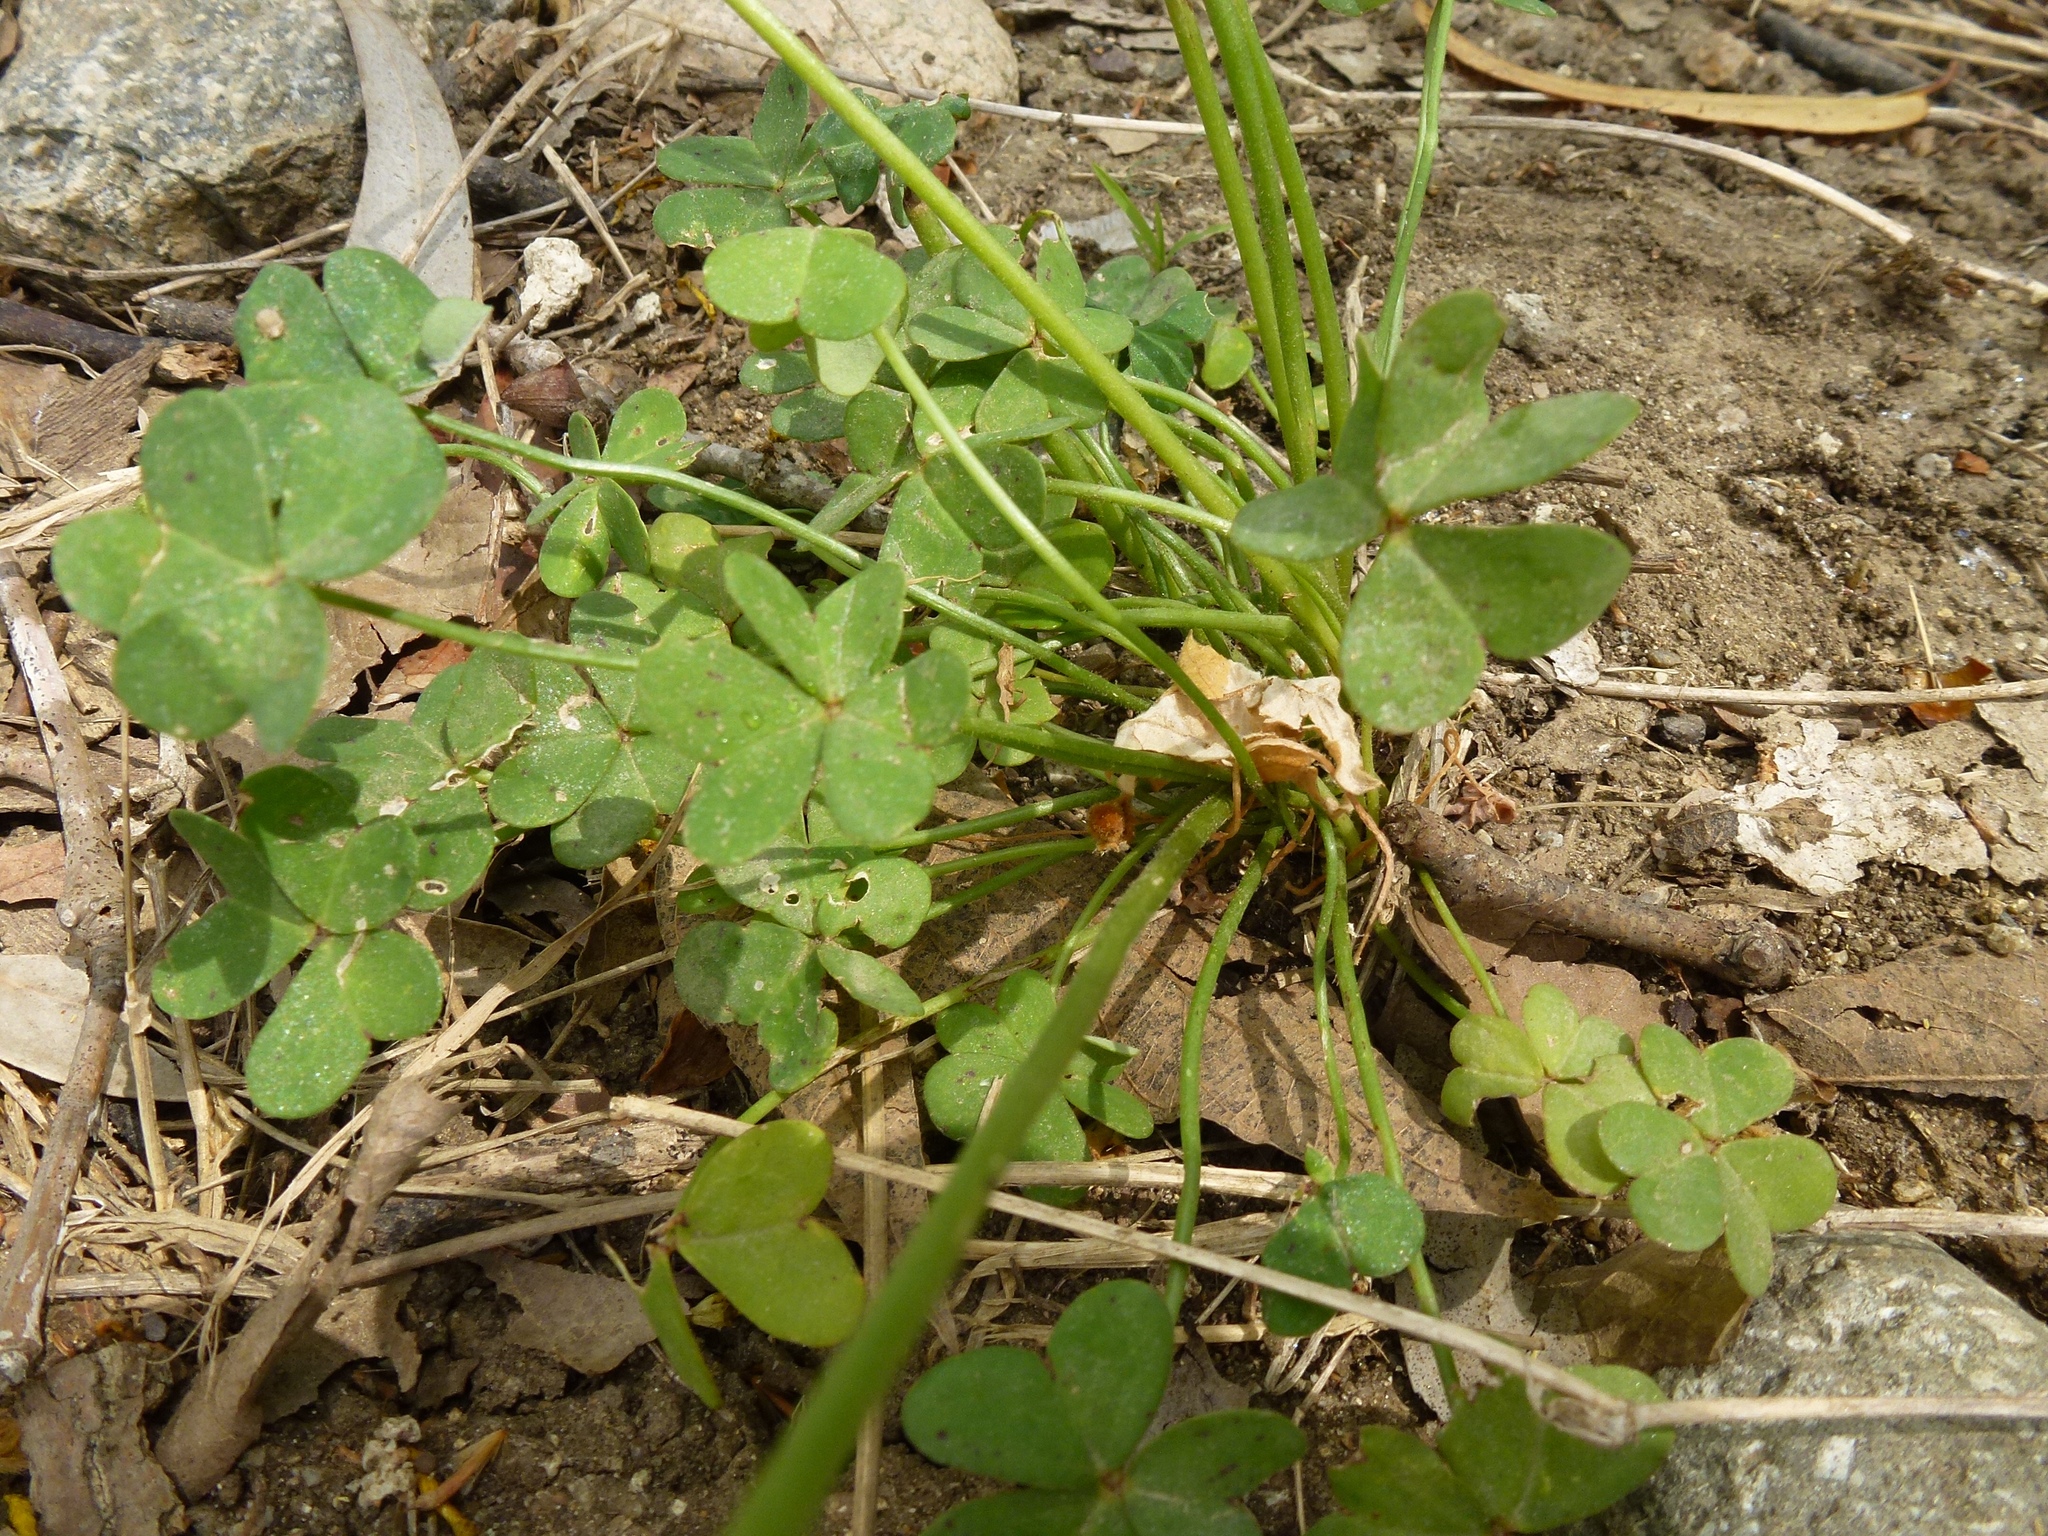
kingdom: Plantae
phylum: Tracheophyta
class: Magnoliopsida
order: Oxalidales
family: Oxalidaceae
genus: Oxalis
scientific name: Oxalis pes-caprae
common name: Bermuda-buttercup
